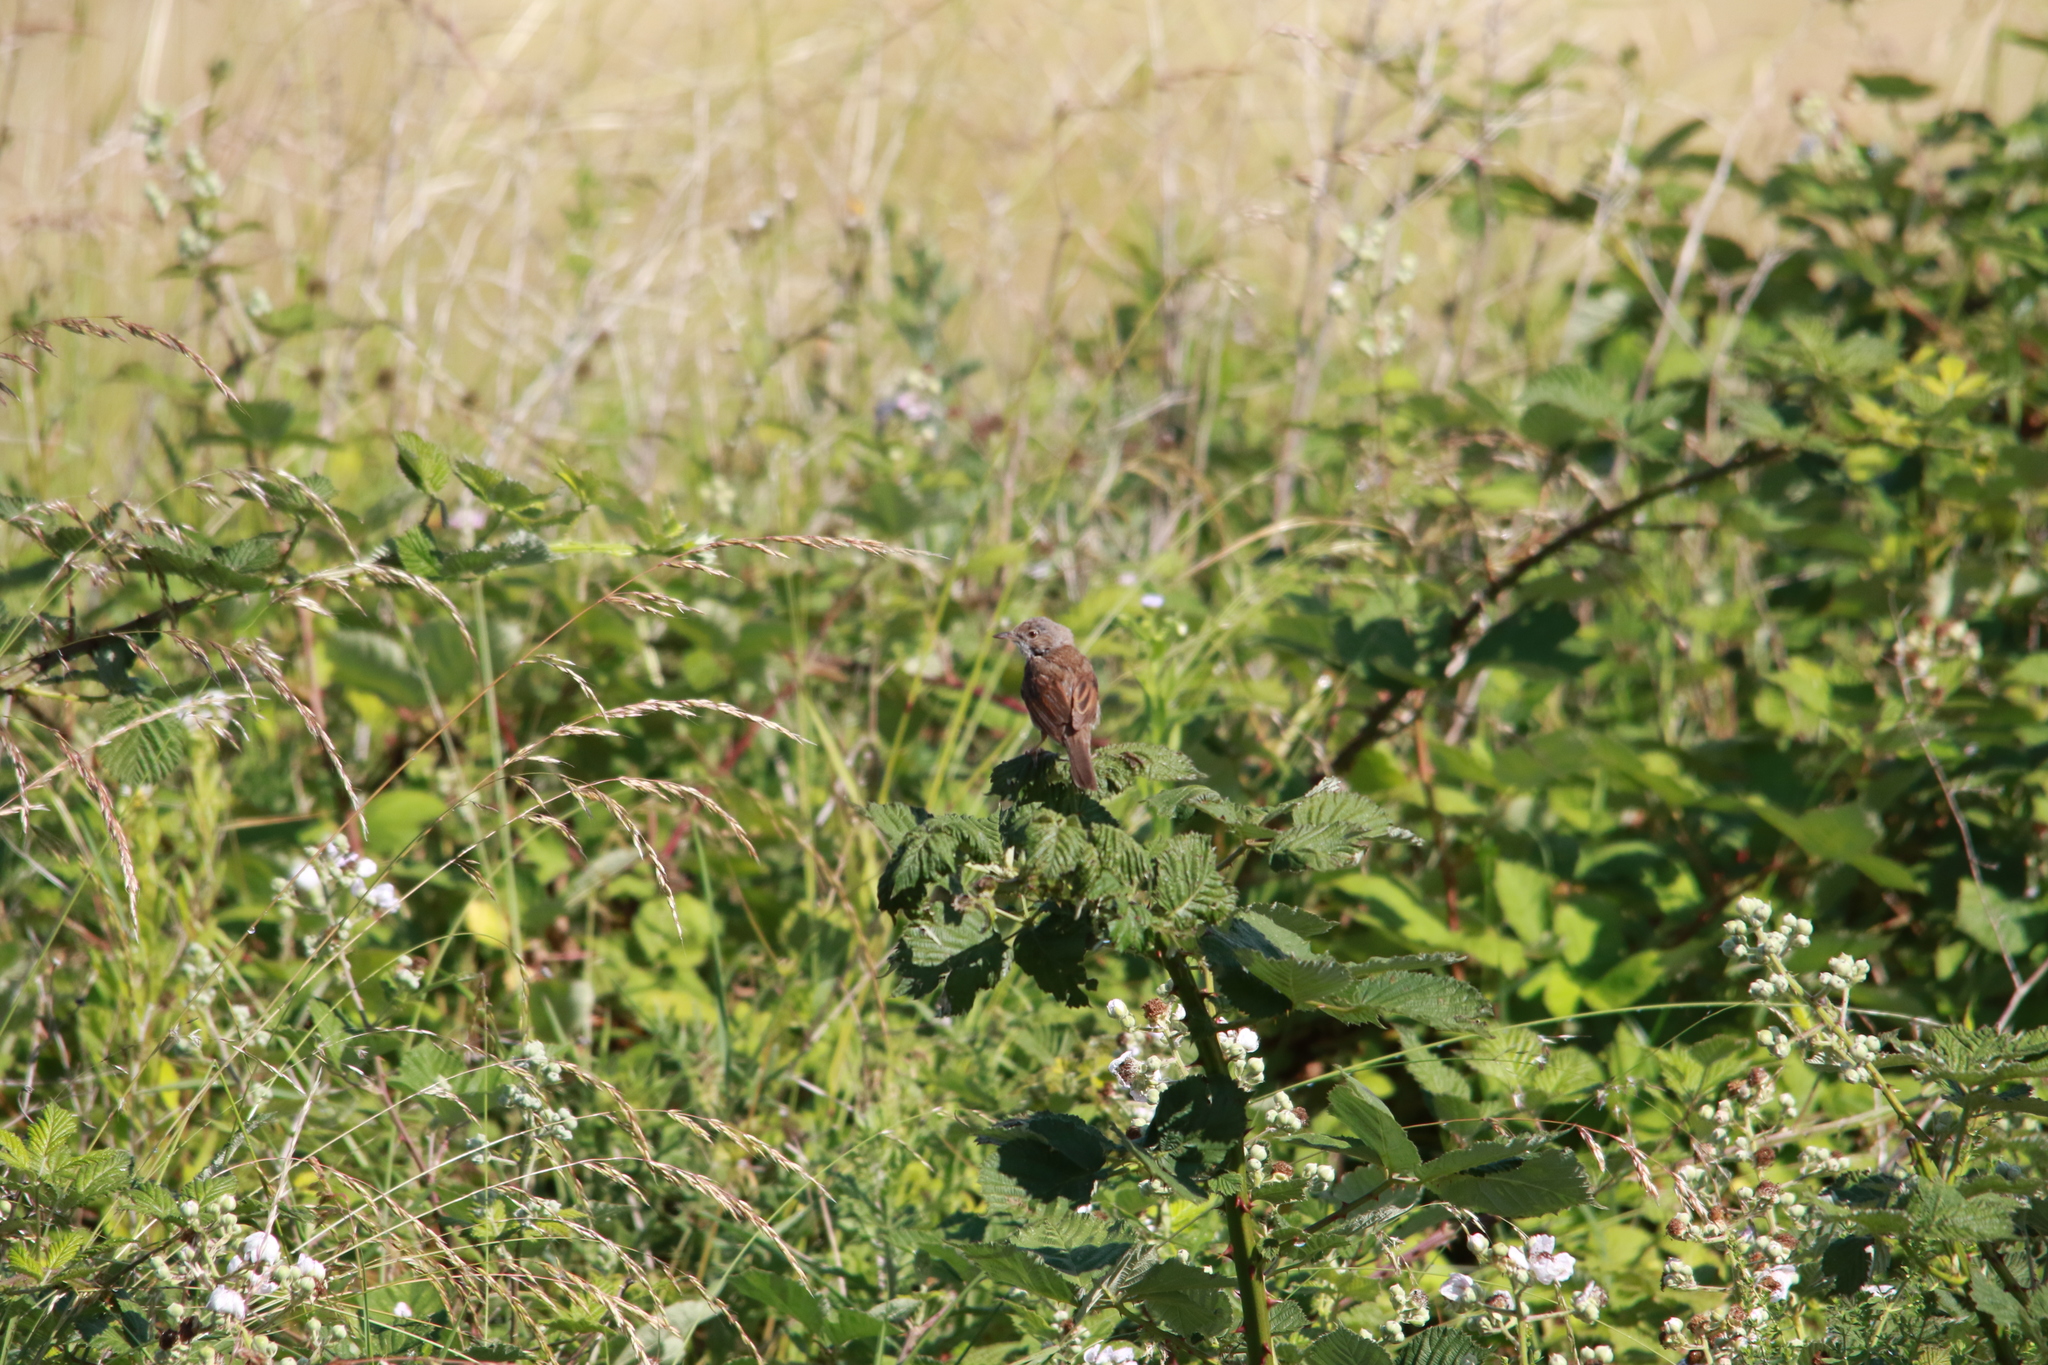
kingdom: Animalia
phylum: Chordata
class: Aves
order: Passeriformes
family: Sylviidae
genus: Sylvia
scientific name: Sylvia communis
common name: Common whitethroat
